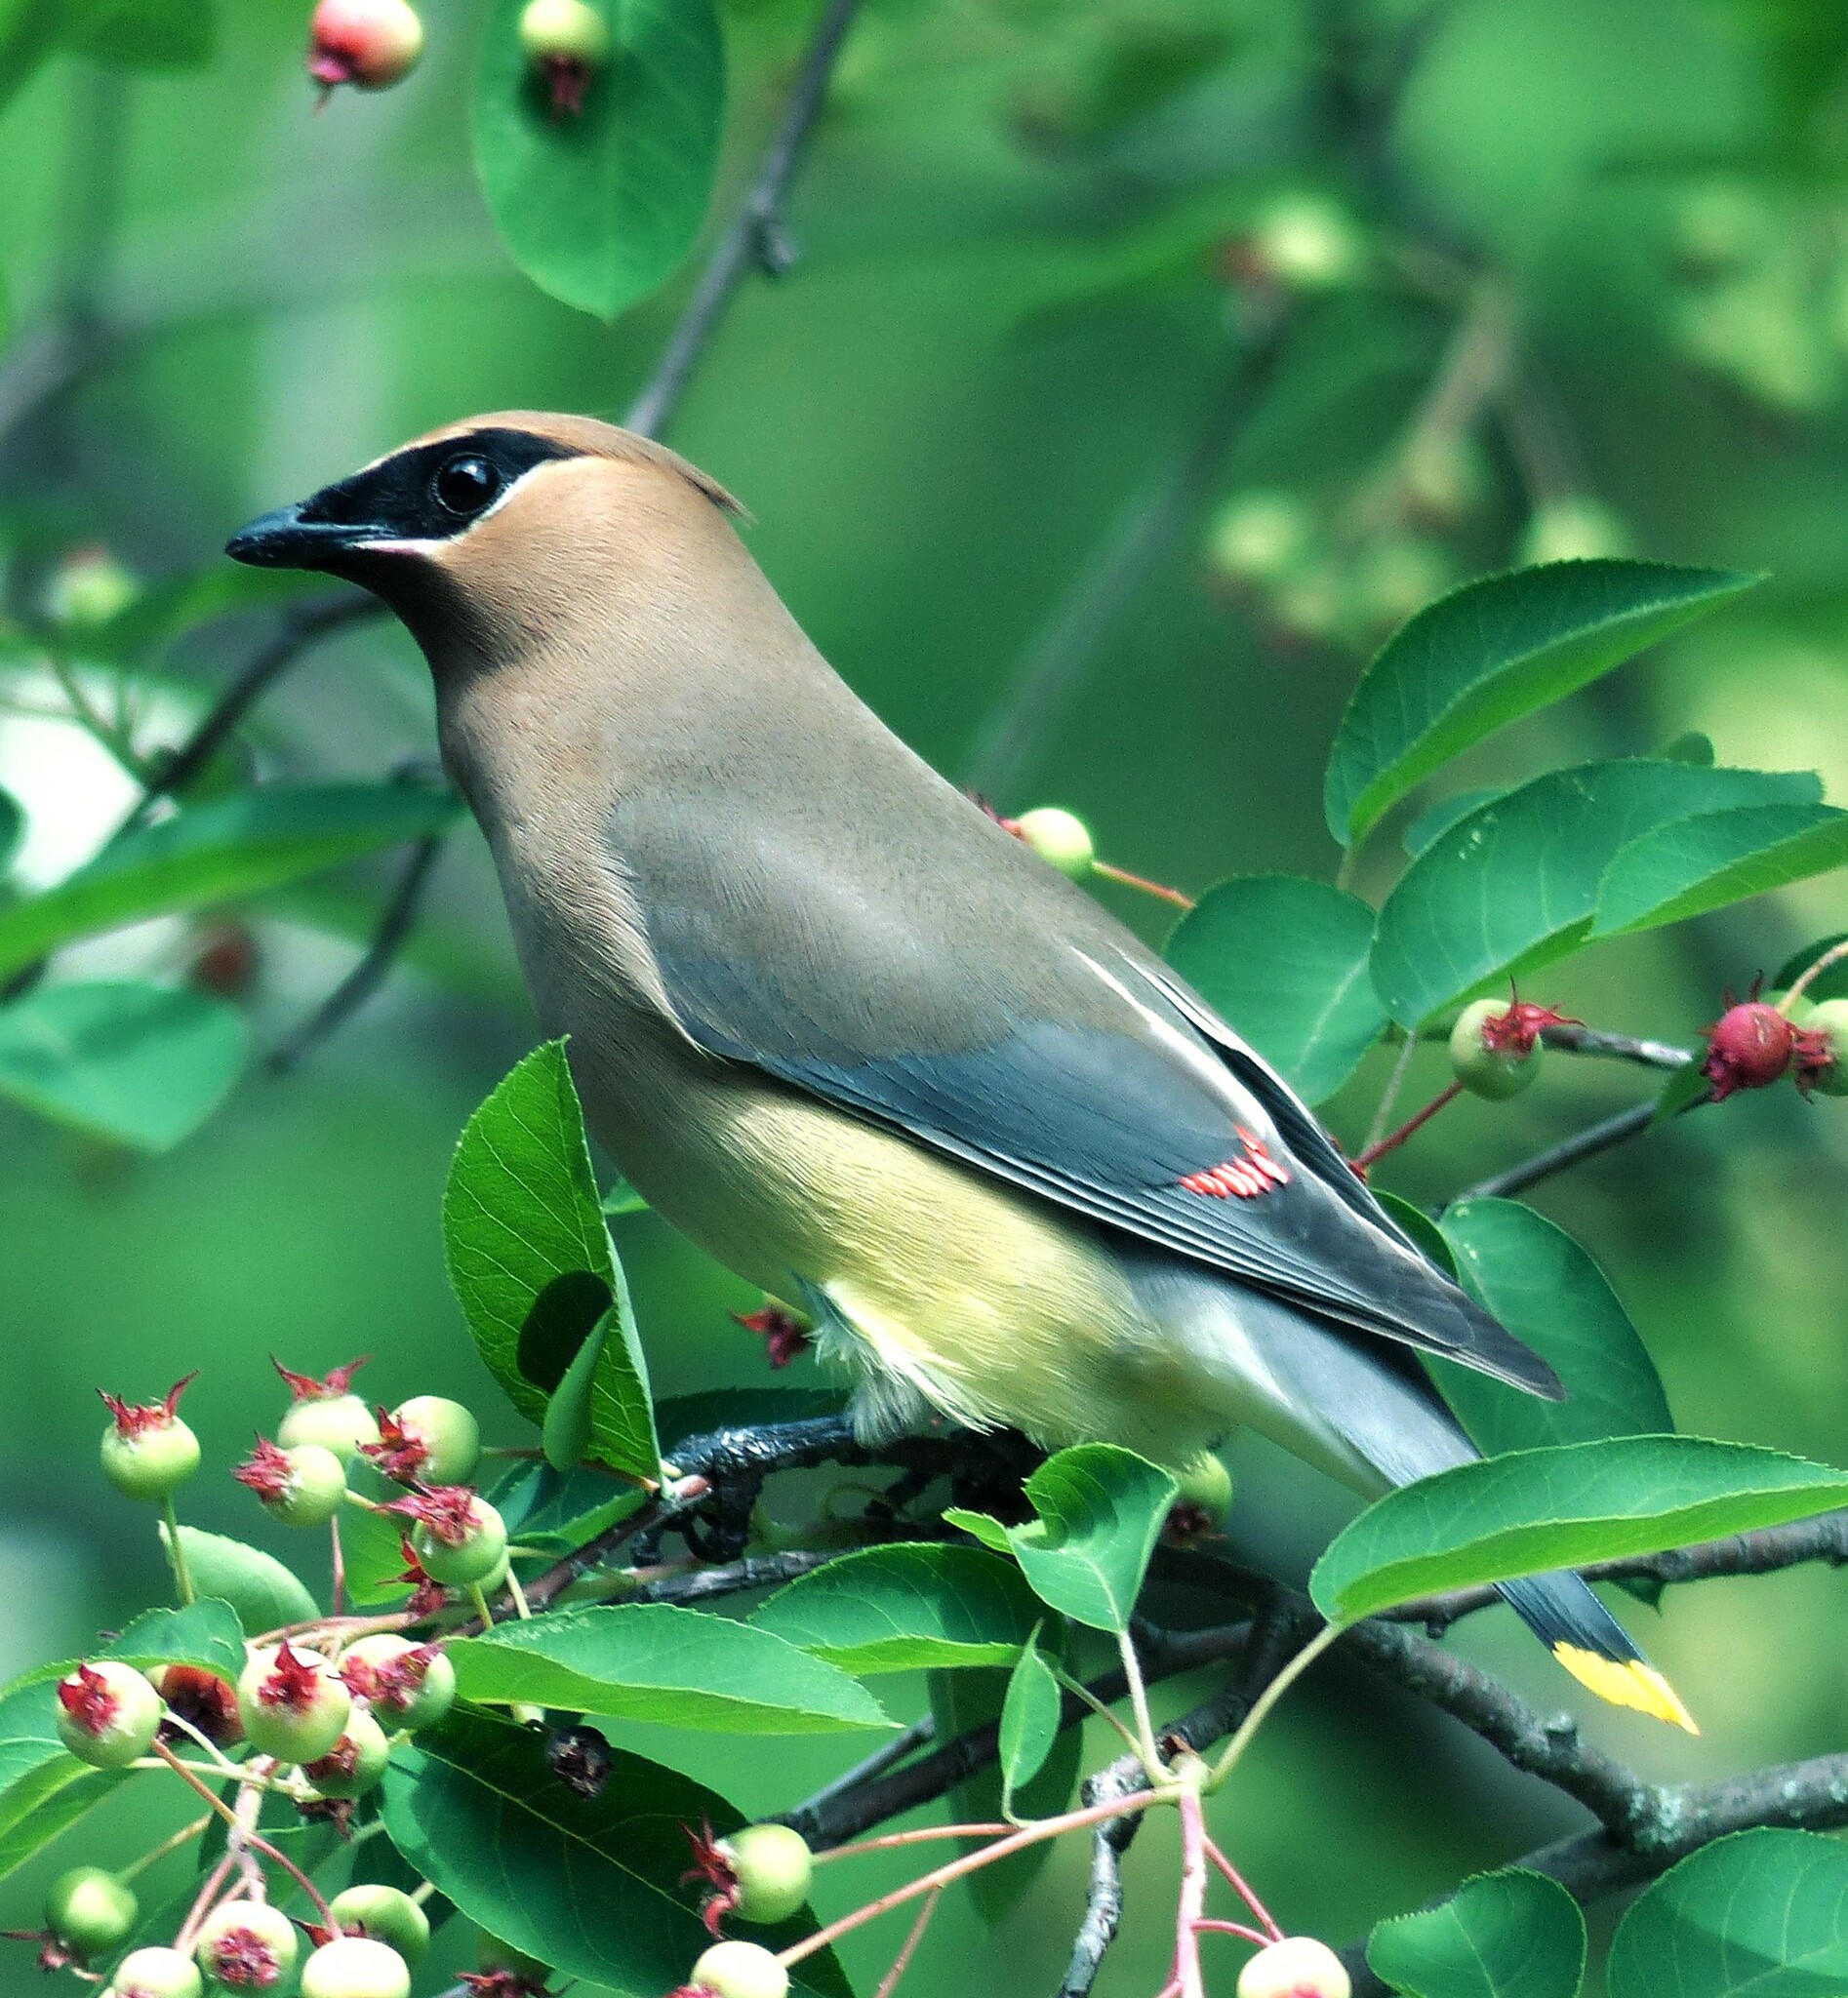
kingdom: Animalia
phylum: Chordata
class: Aves
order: Passeriformes
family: Bombycillidae
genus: Bombycilla
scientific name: Bombycilla cedrorum
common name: Cedar waxwing
